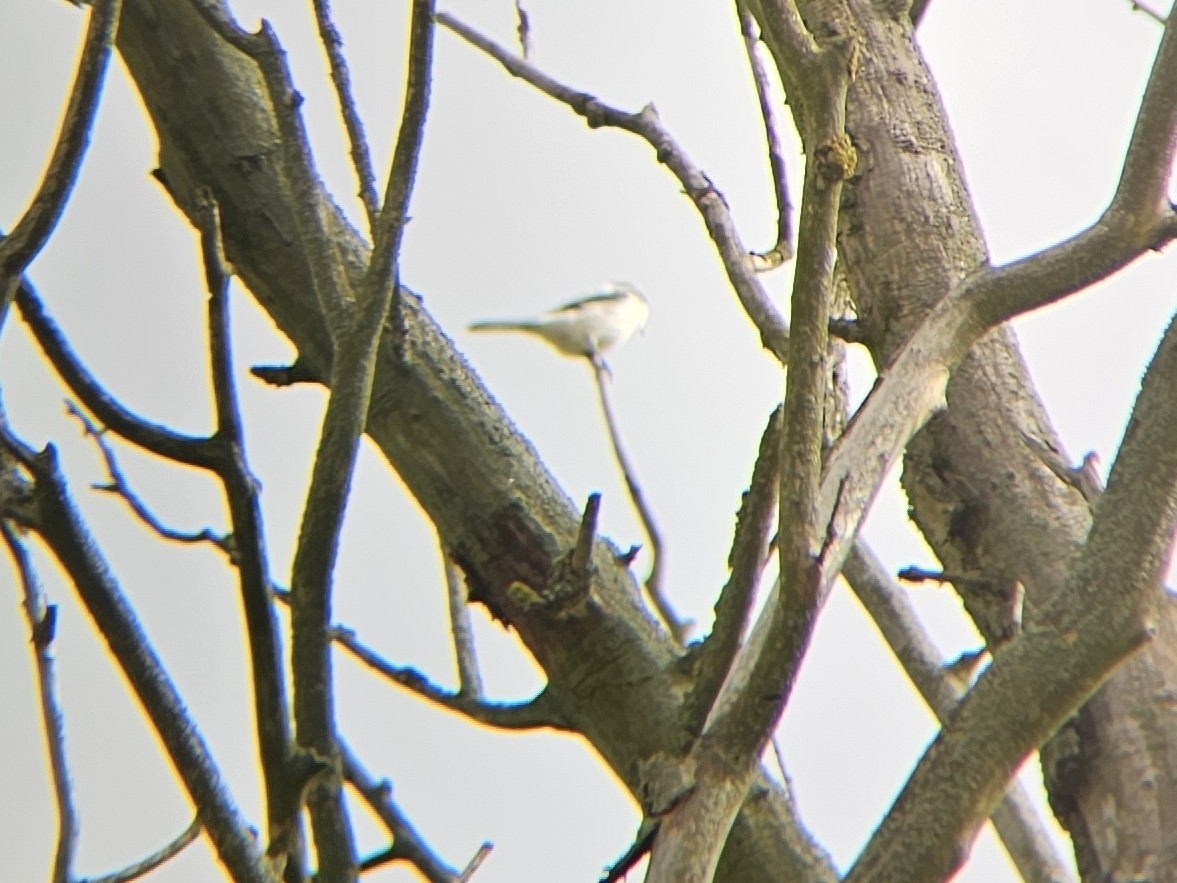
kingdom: Animalia
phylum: Chordata
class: Aves
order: Passeriformes
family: Laniidae
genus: Lanius
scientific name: Lanius excubitor
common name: Great grey shrike
